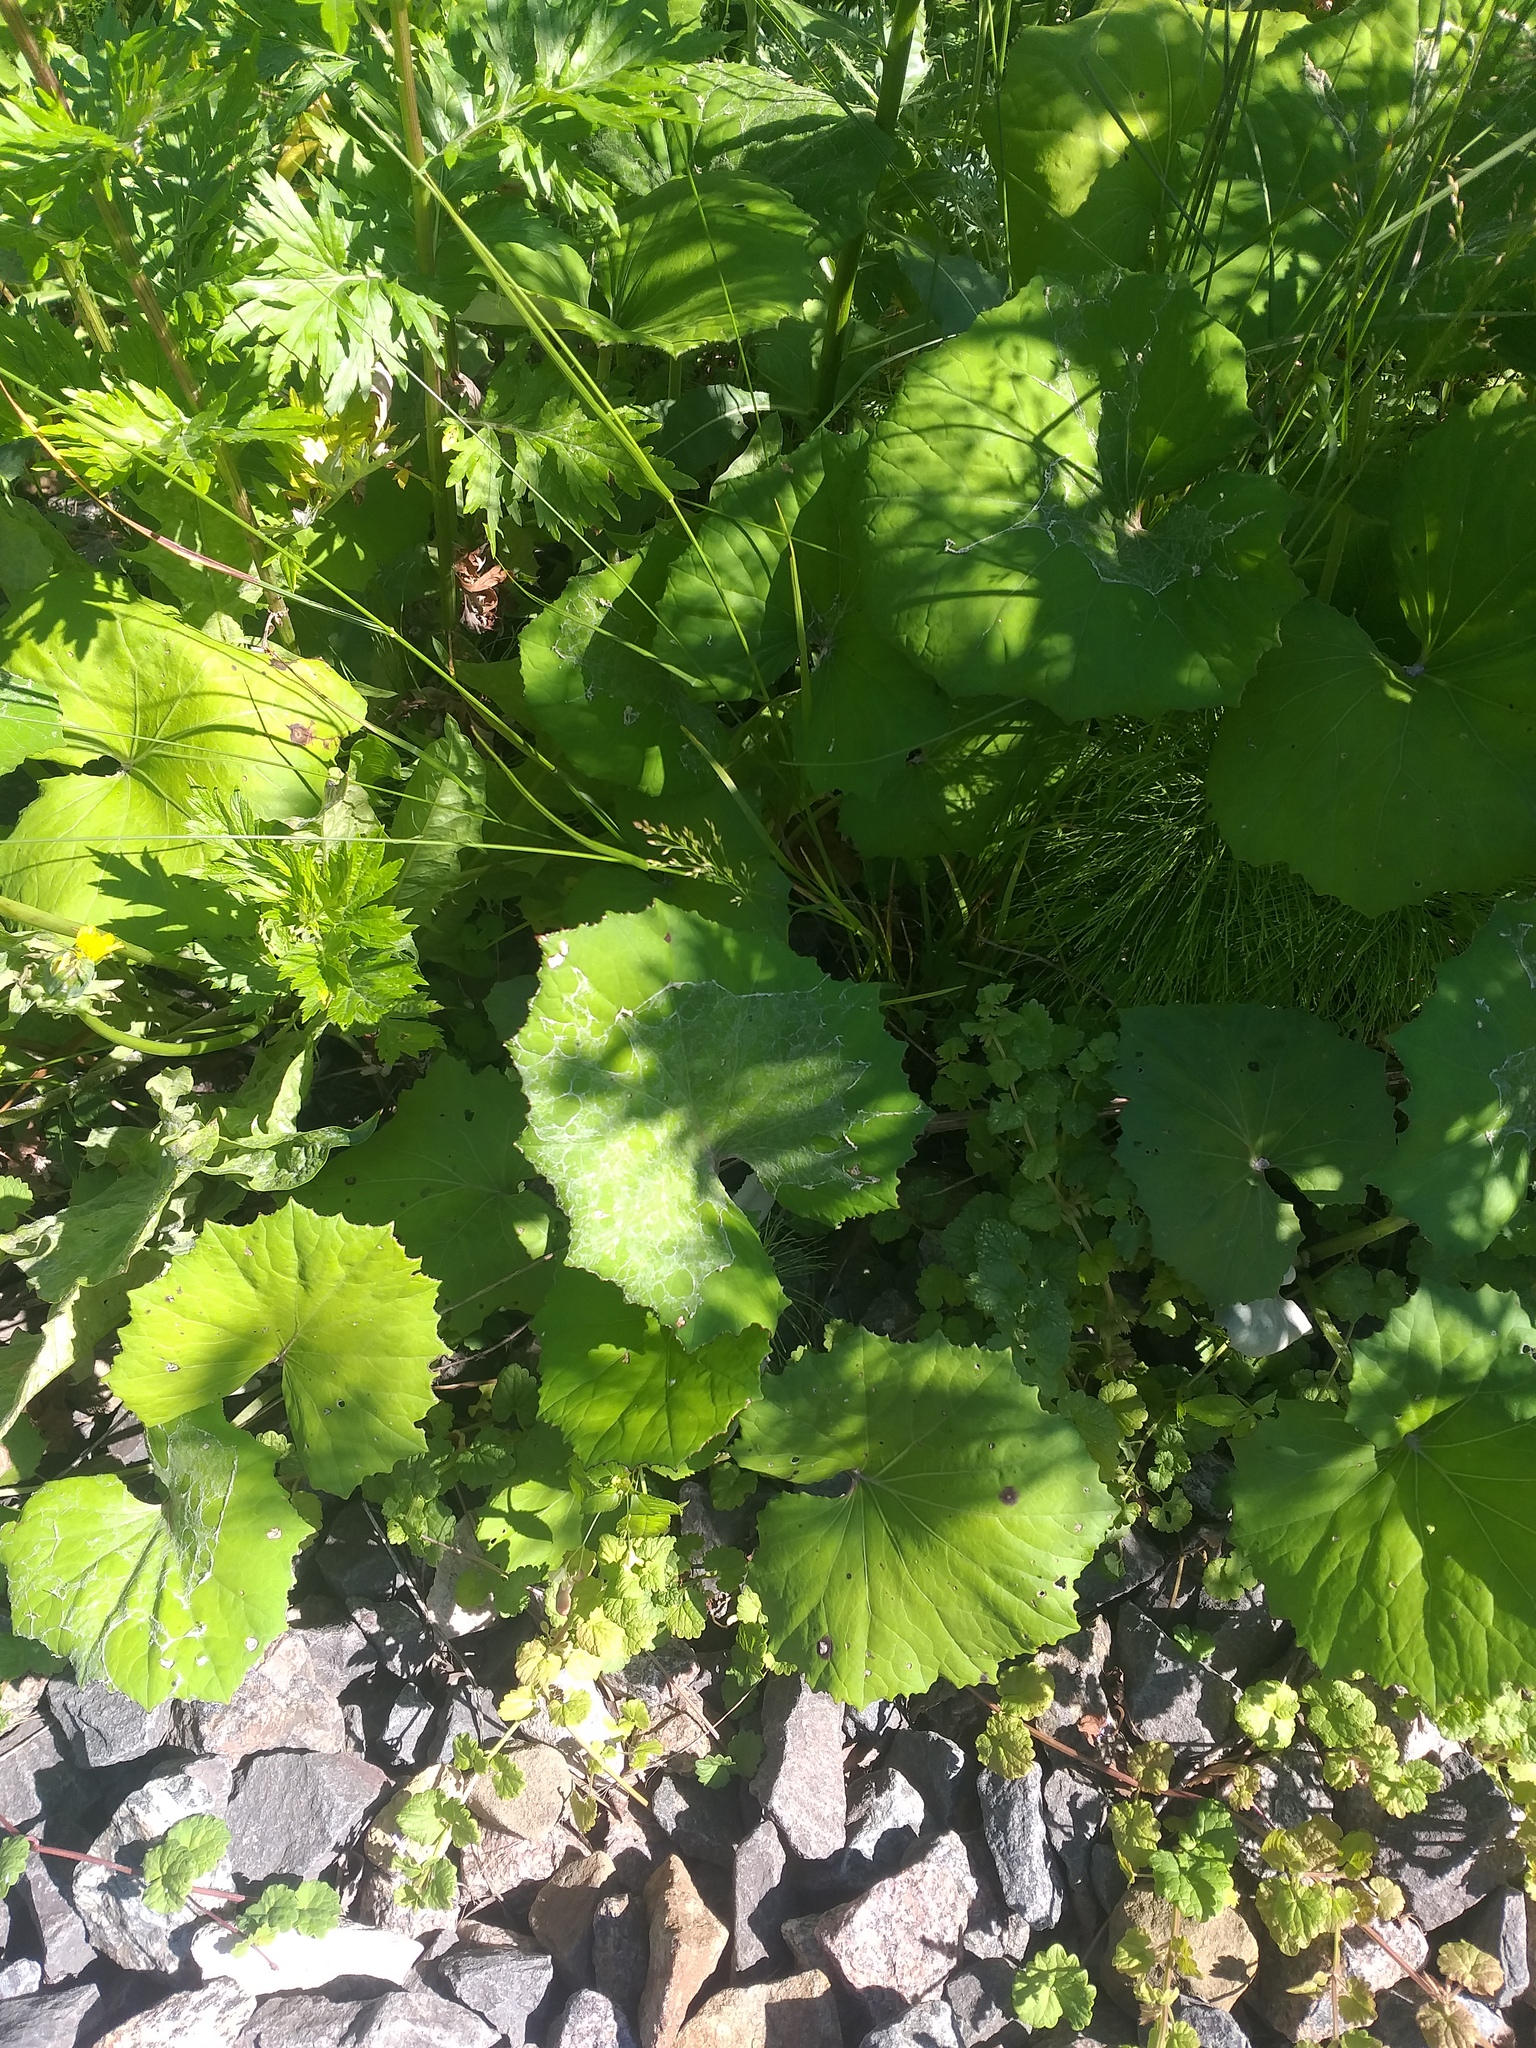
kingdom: Plantae
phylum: Tracheophyta
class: Magnoliopsida
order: Asterales
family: Asteraceae
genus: Tussilago
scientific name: Tussilago farfara
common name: Coltsfoot
